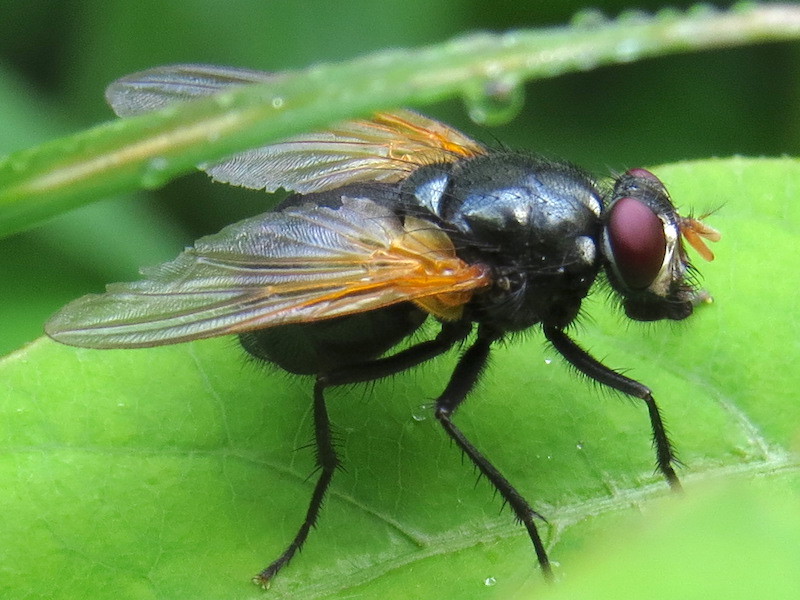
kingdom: Animalia
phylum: Arthropoda
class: Insecta
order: Diptera
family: Muscidae
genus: Mesembrina
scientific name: Mesembrina latreillii
